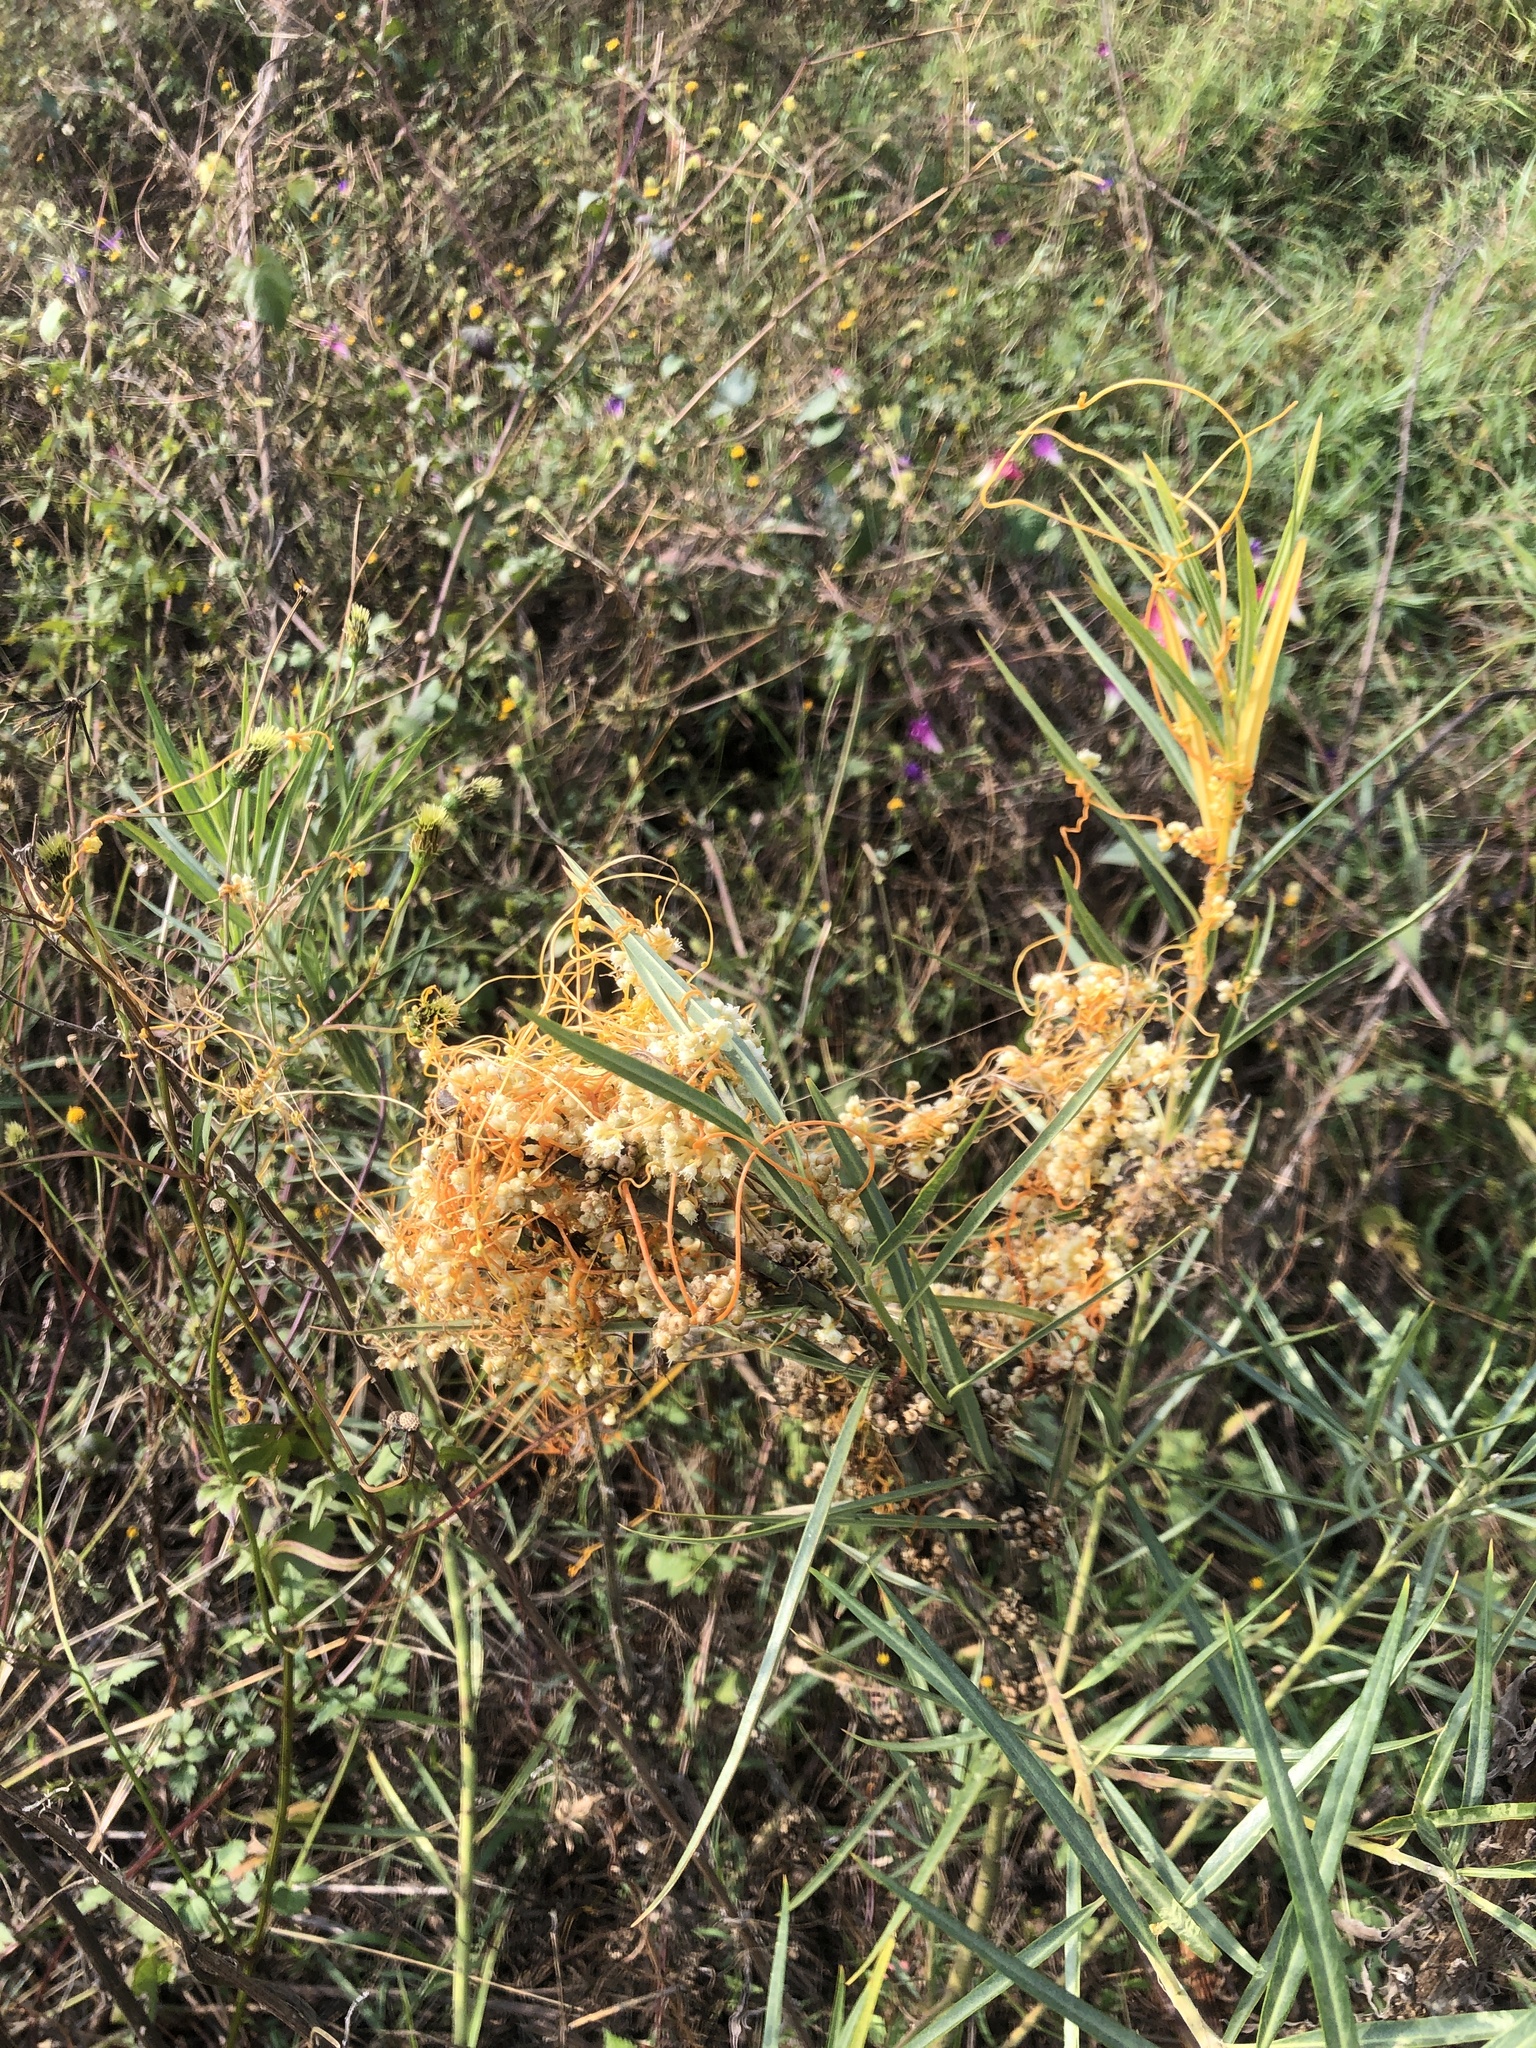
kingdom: Plantae
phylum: Tracheophyta
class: Magnoliopsida
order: Solanales
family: Convolvulaceae
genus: Cuscuta
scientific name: Cuscuta campestris
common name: Yellow dodder
